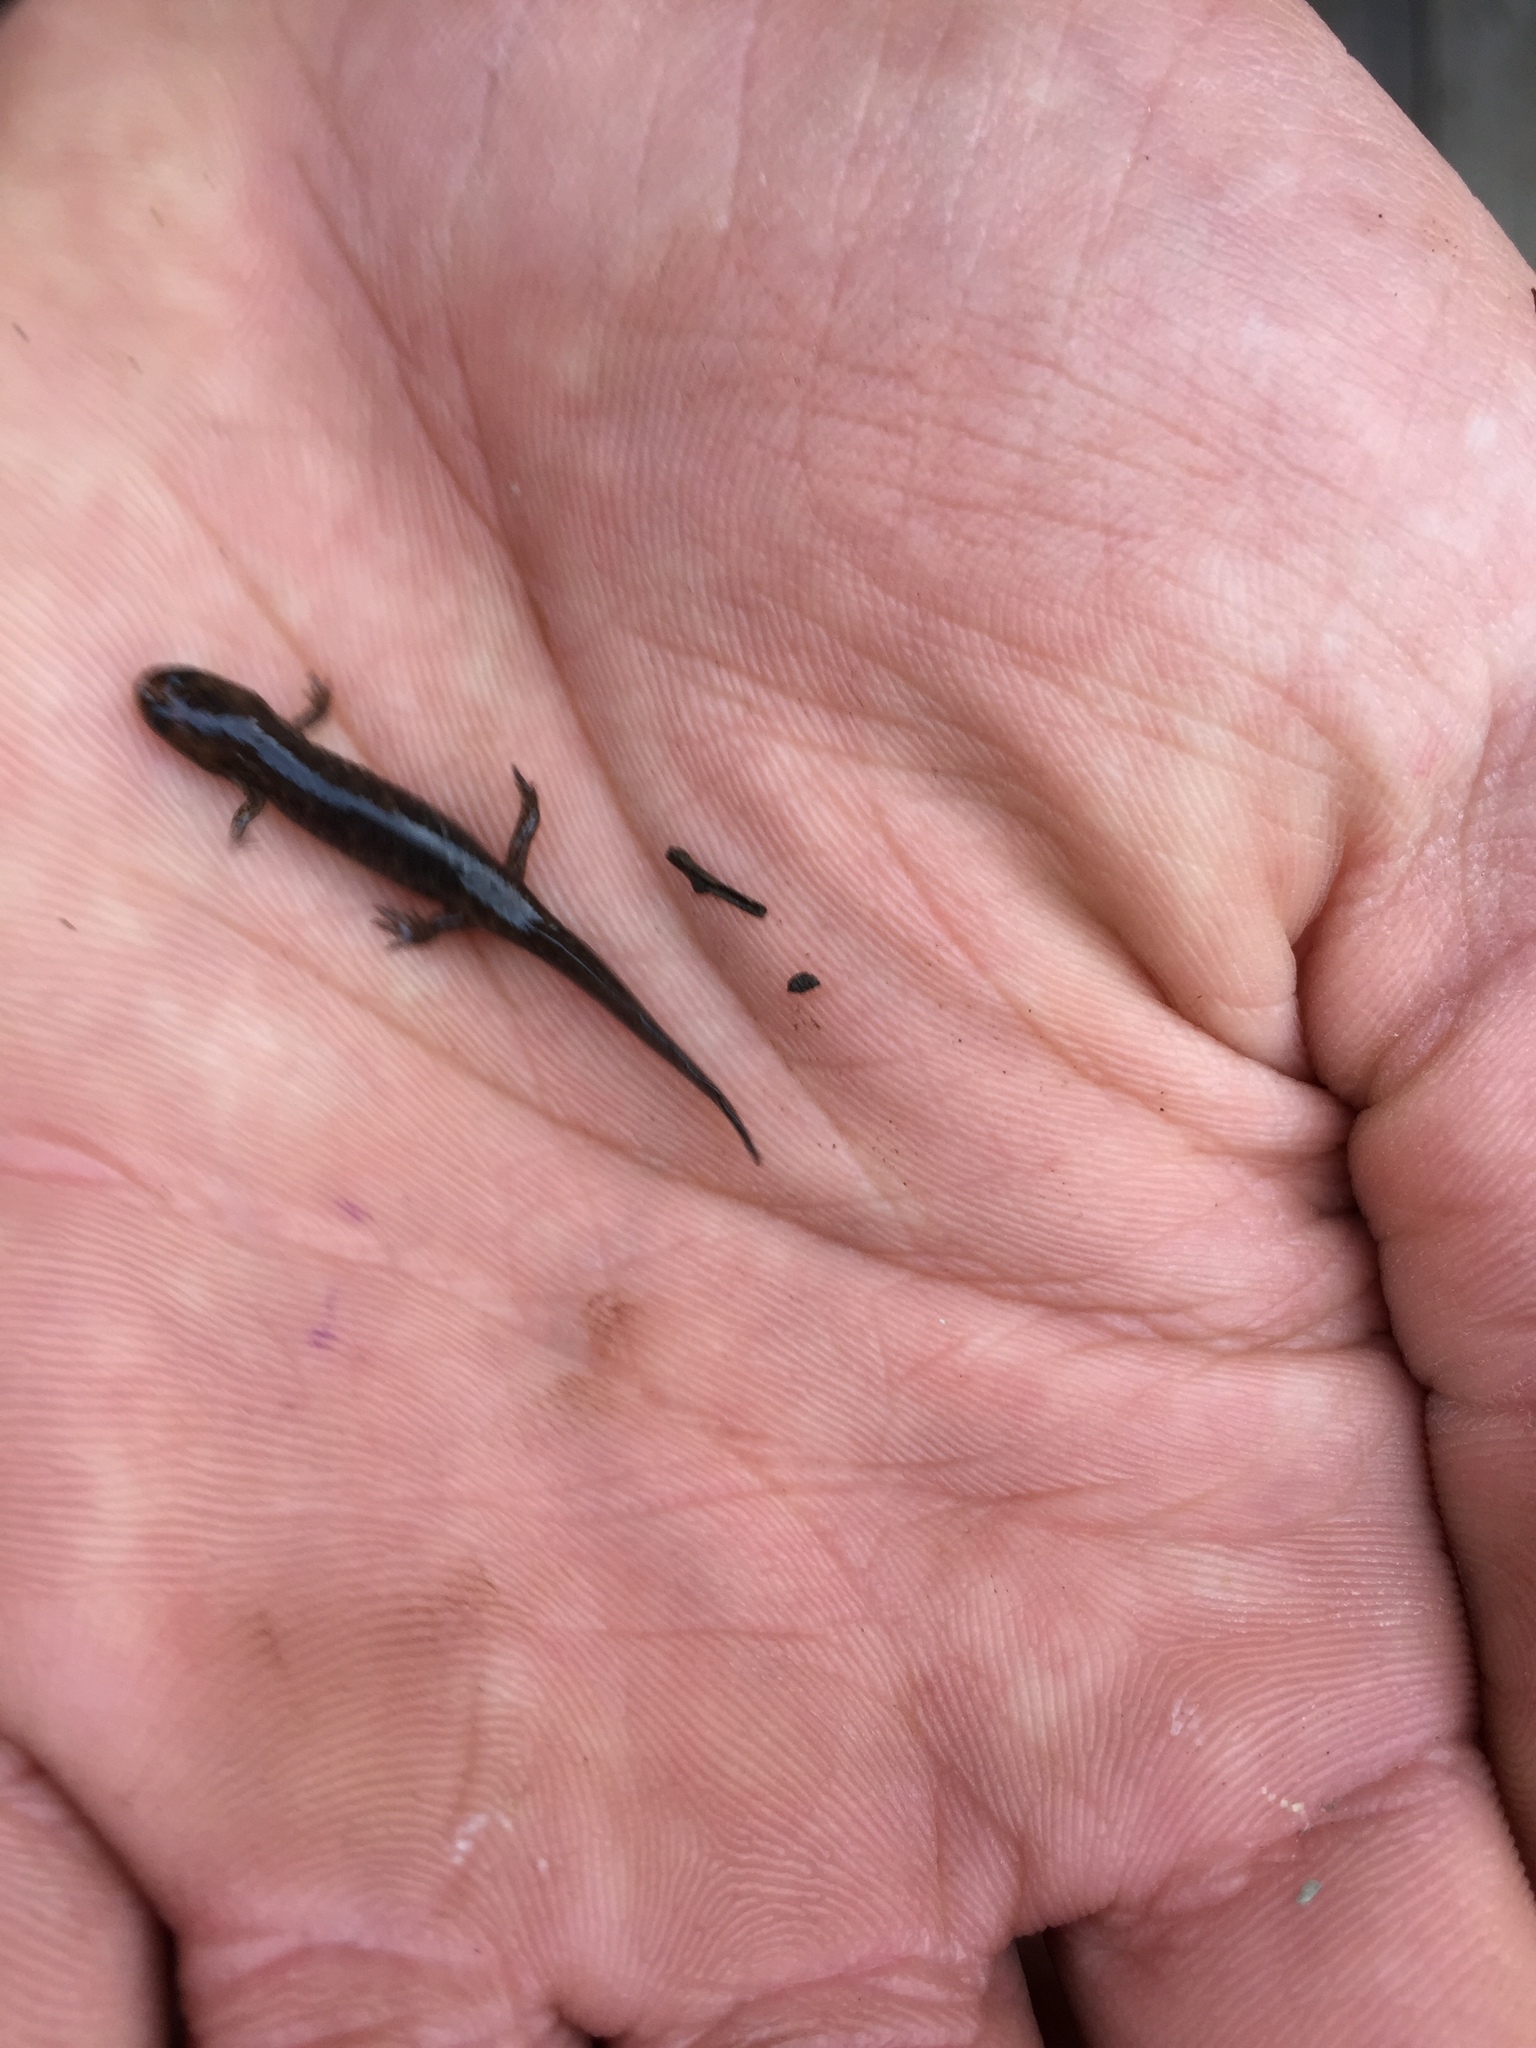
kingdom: Animalia
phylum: Chordata
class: Amphibia
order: Caudata
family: Plethodontidae
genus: Desmognathus
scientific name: Desmognathus brimleyorum
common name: Ouachita dusky salamander
